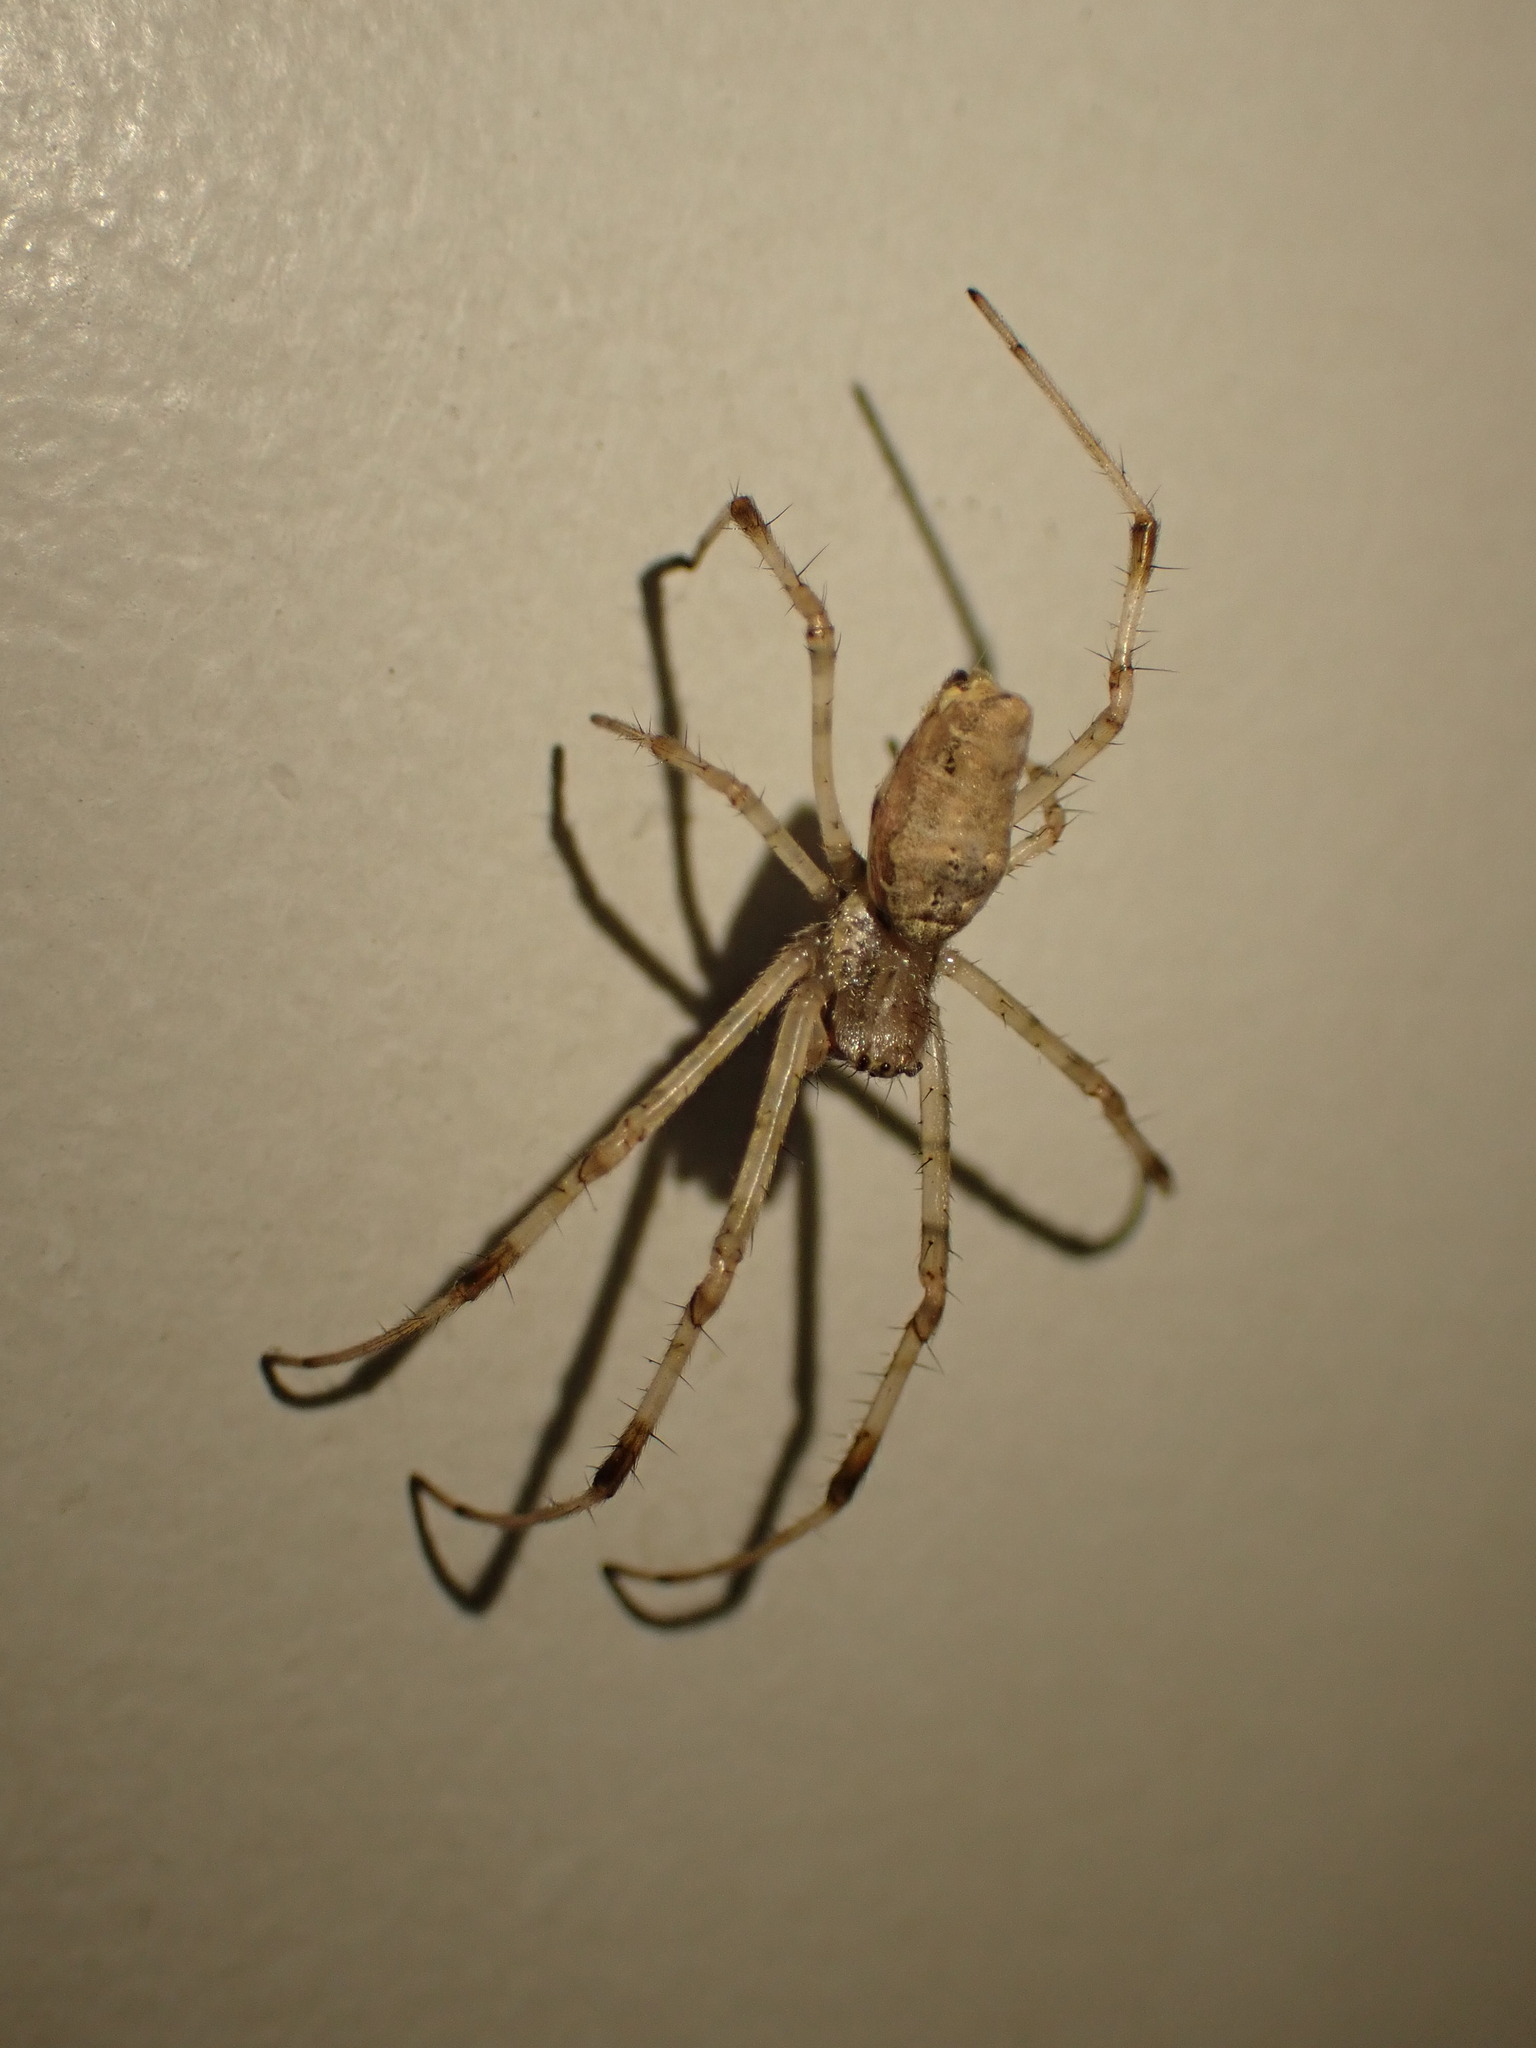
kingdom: Animalia
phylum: Arthropoda
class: Arachnida
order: Araneae
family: Araneidae
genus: Nephilingis
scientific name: Nephilingis cruentata
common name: African hermit spider
